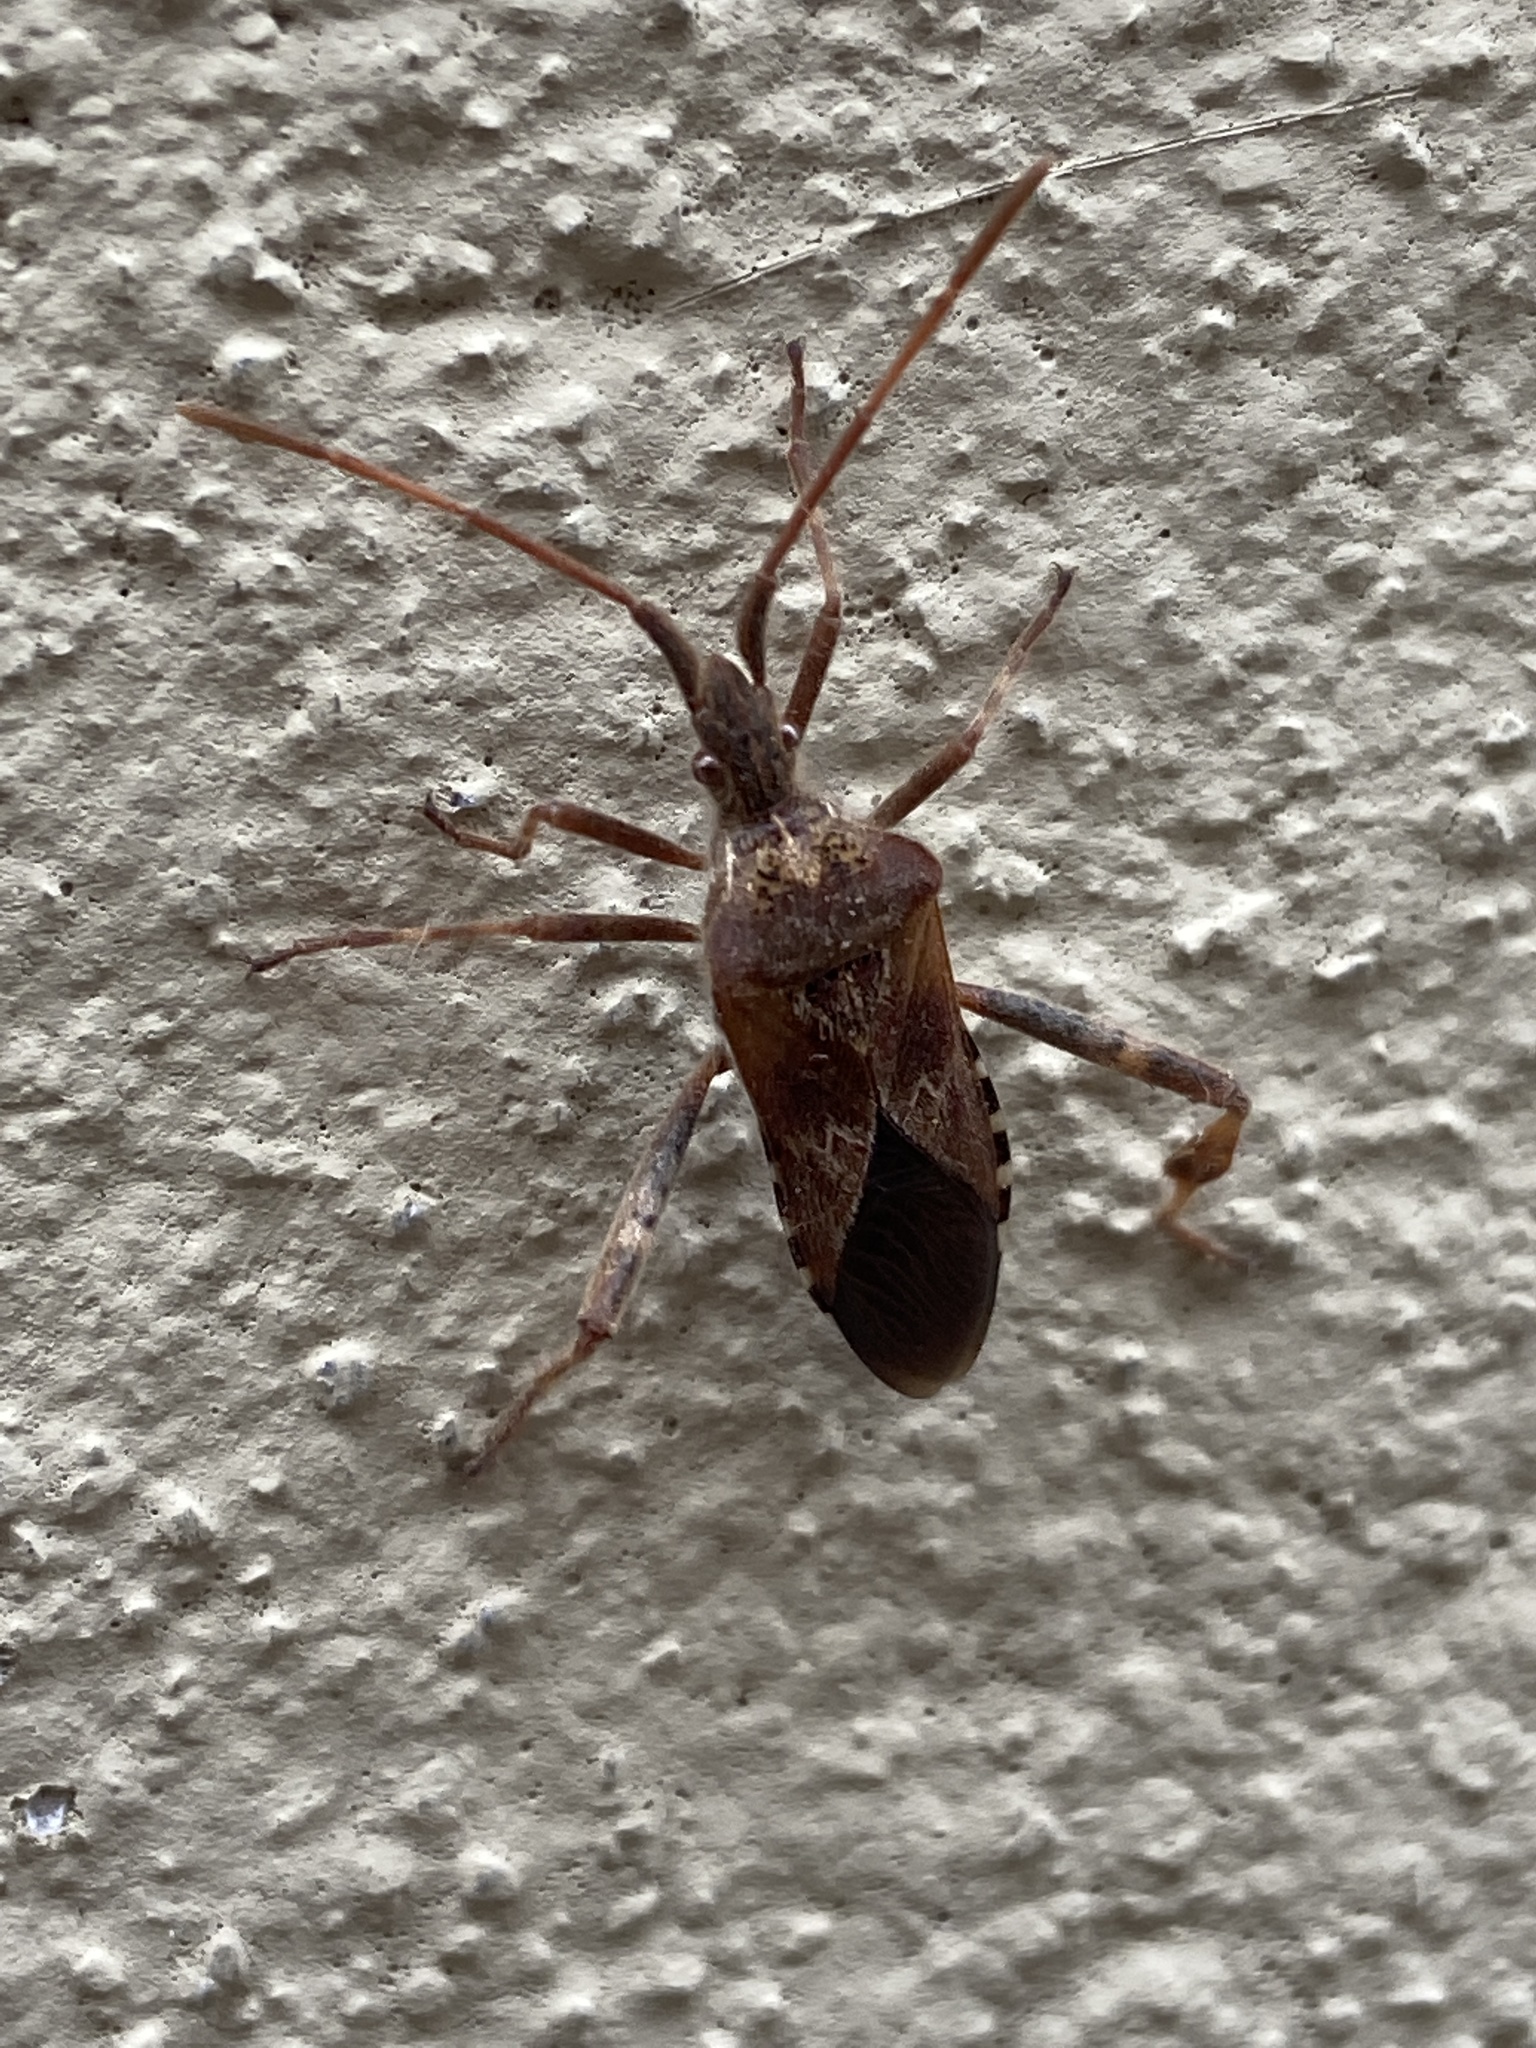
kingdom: Animalia
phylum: Arthropoda
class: Insecta
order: Hemiptera
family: Coreidae
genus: Leptoglossus
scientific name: Leptoglossus occidentalis
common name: Western conifer-seed bug
